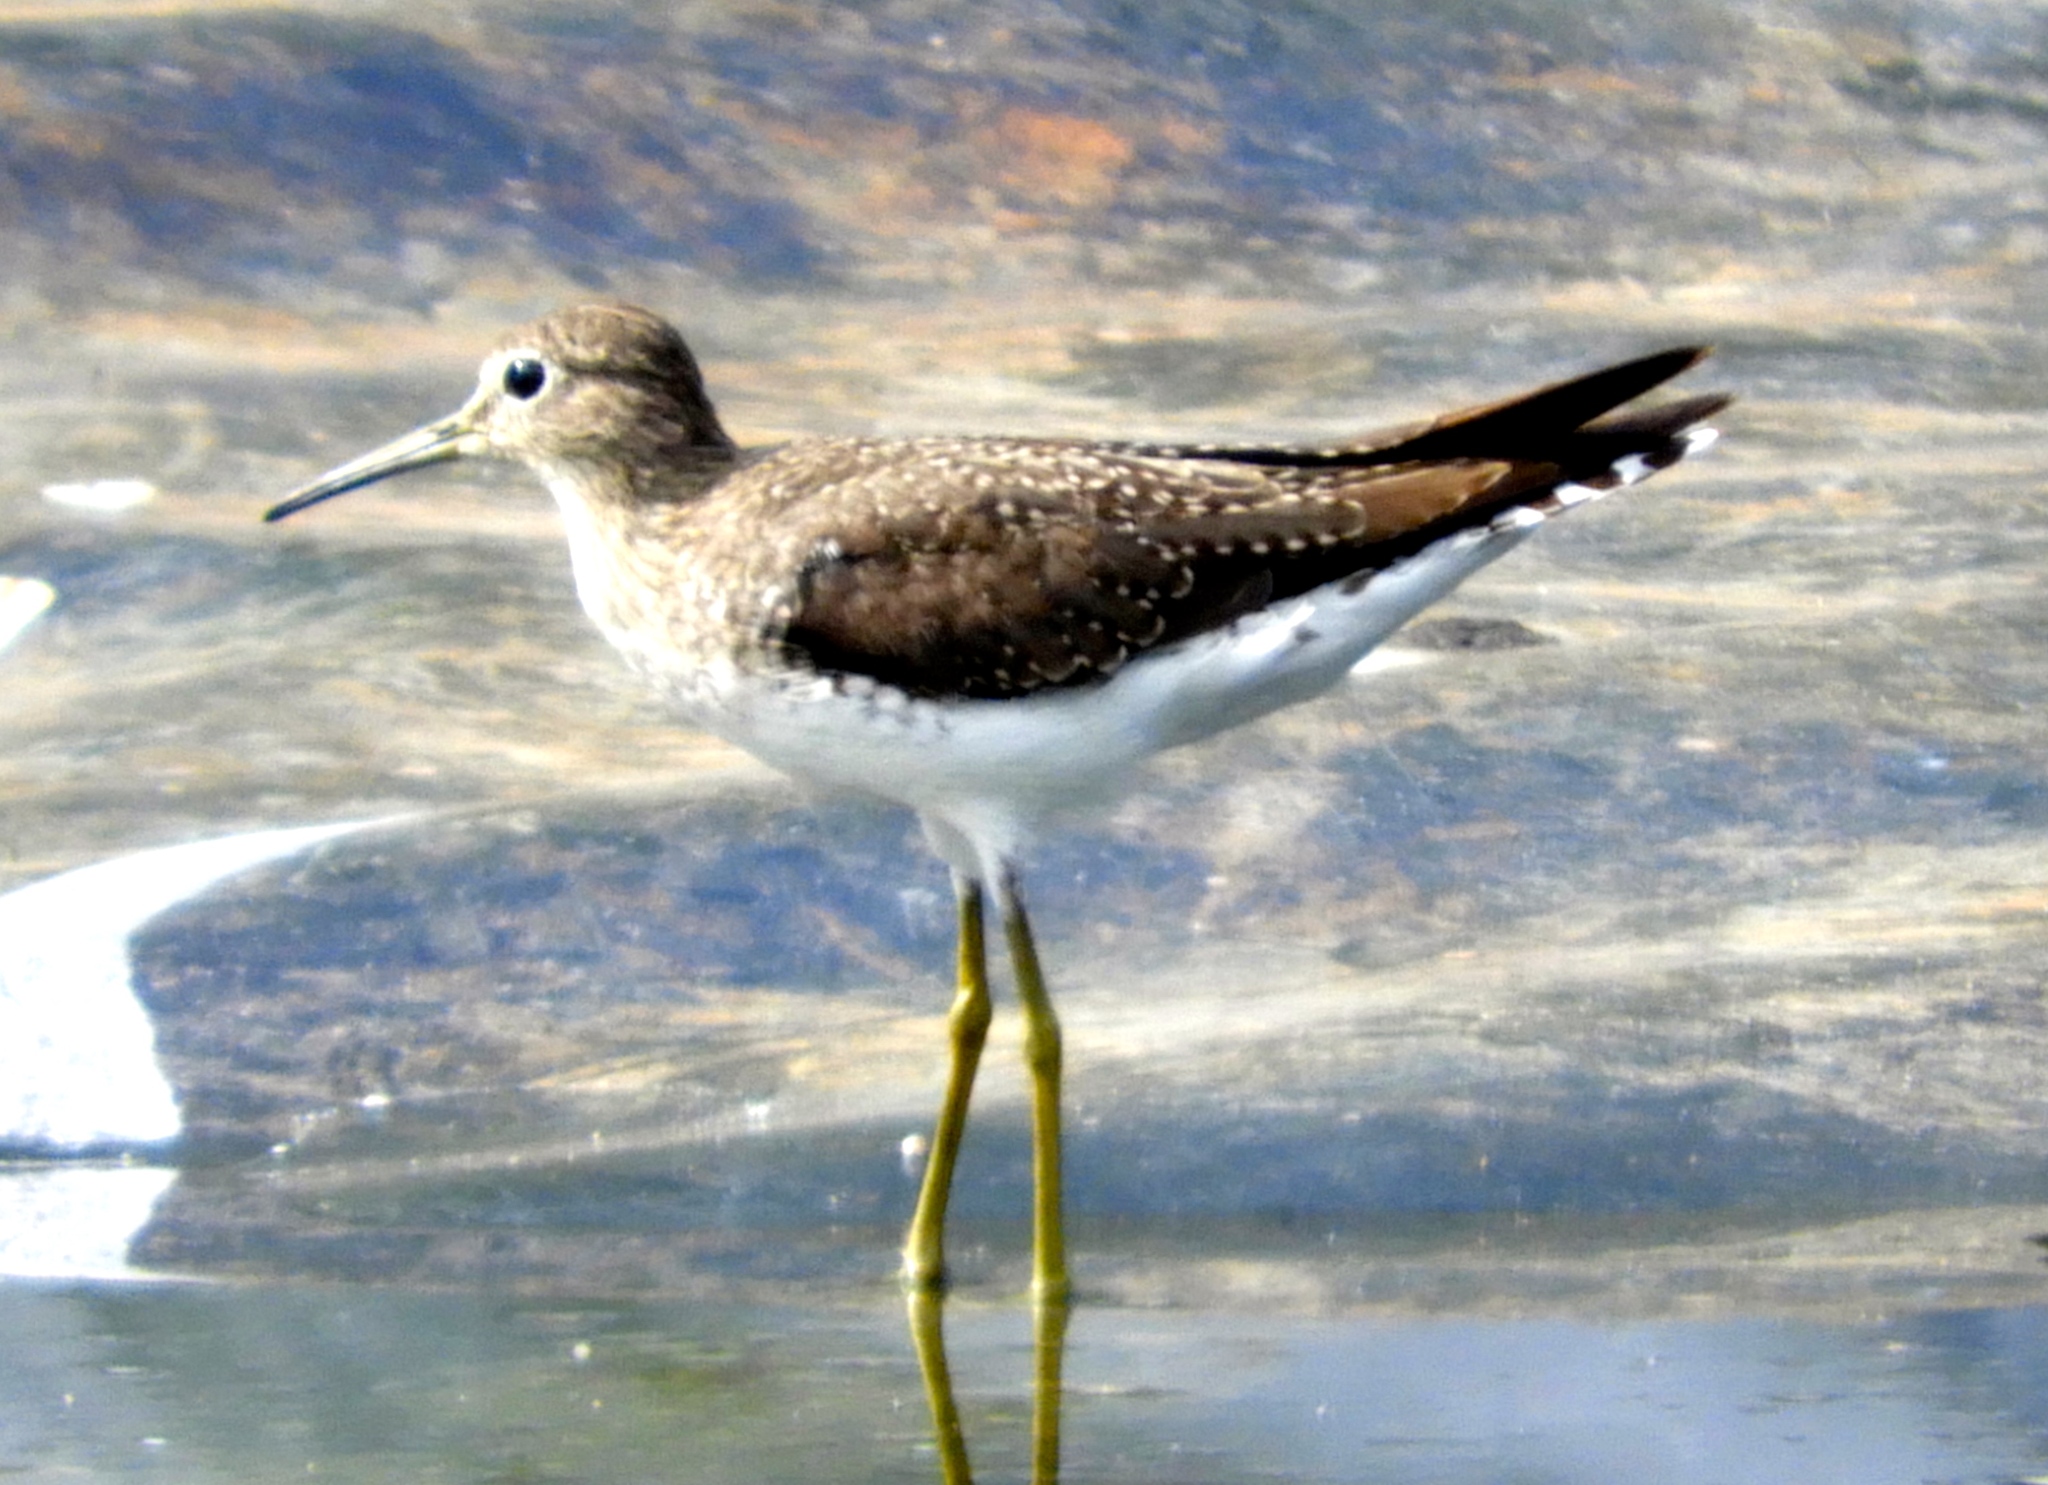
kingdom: Animalia
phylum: Chordata
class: Aves
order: Charadriiformes
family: Scolopacidae
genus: Tringa
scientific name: Tringa solitaria
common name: Solitary sandpiper
